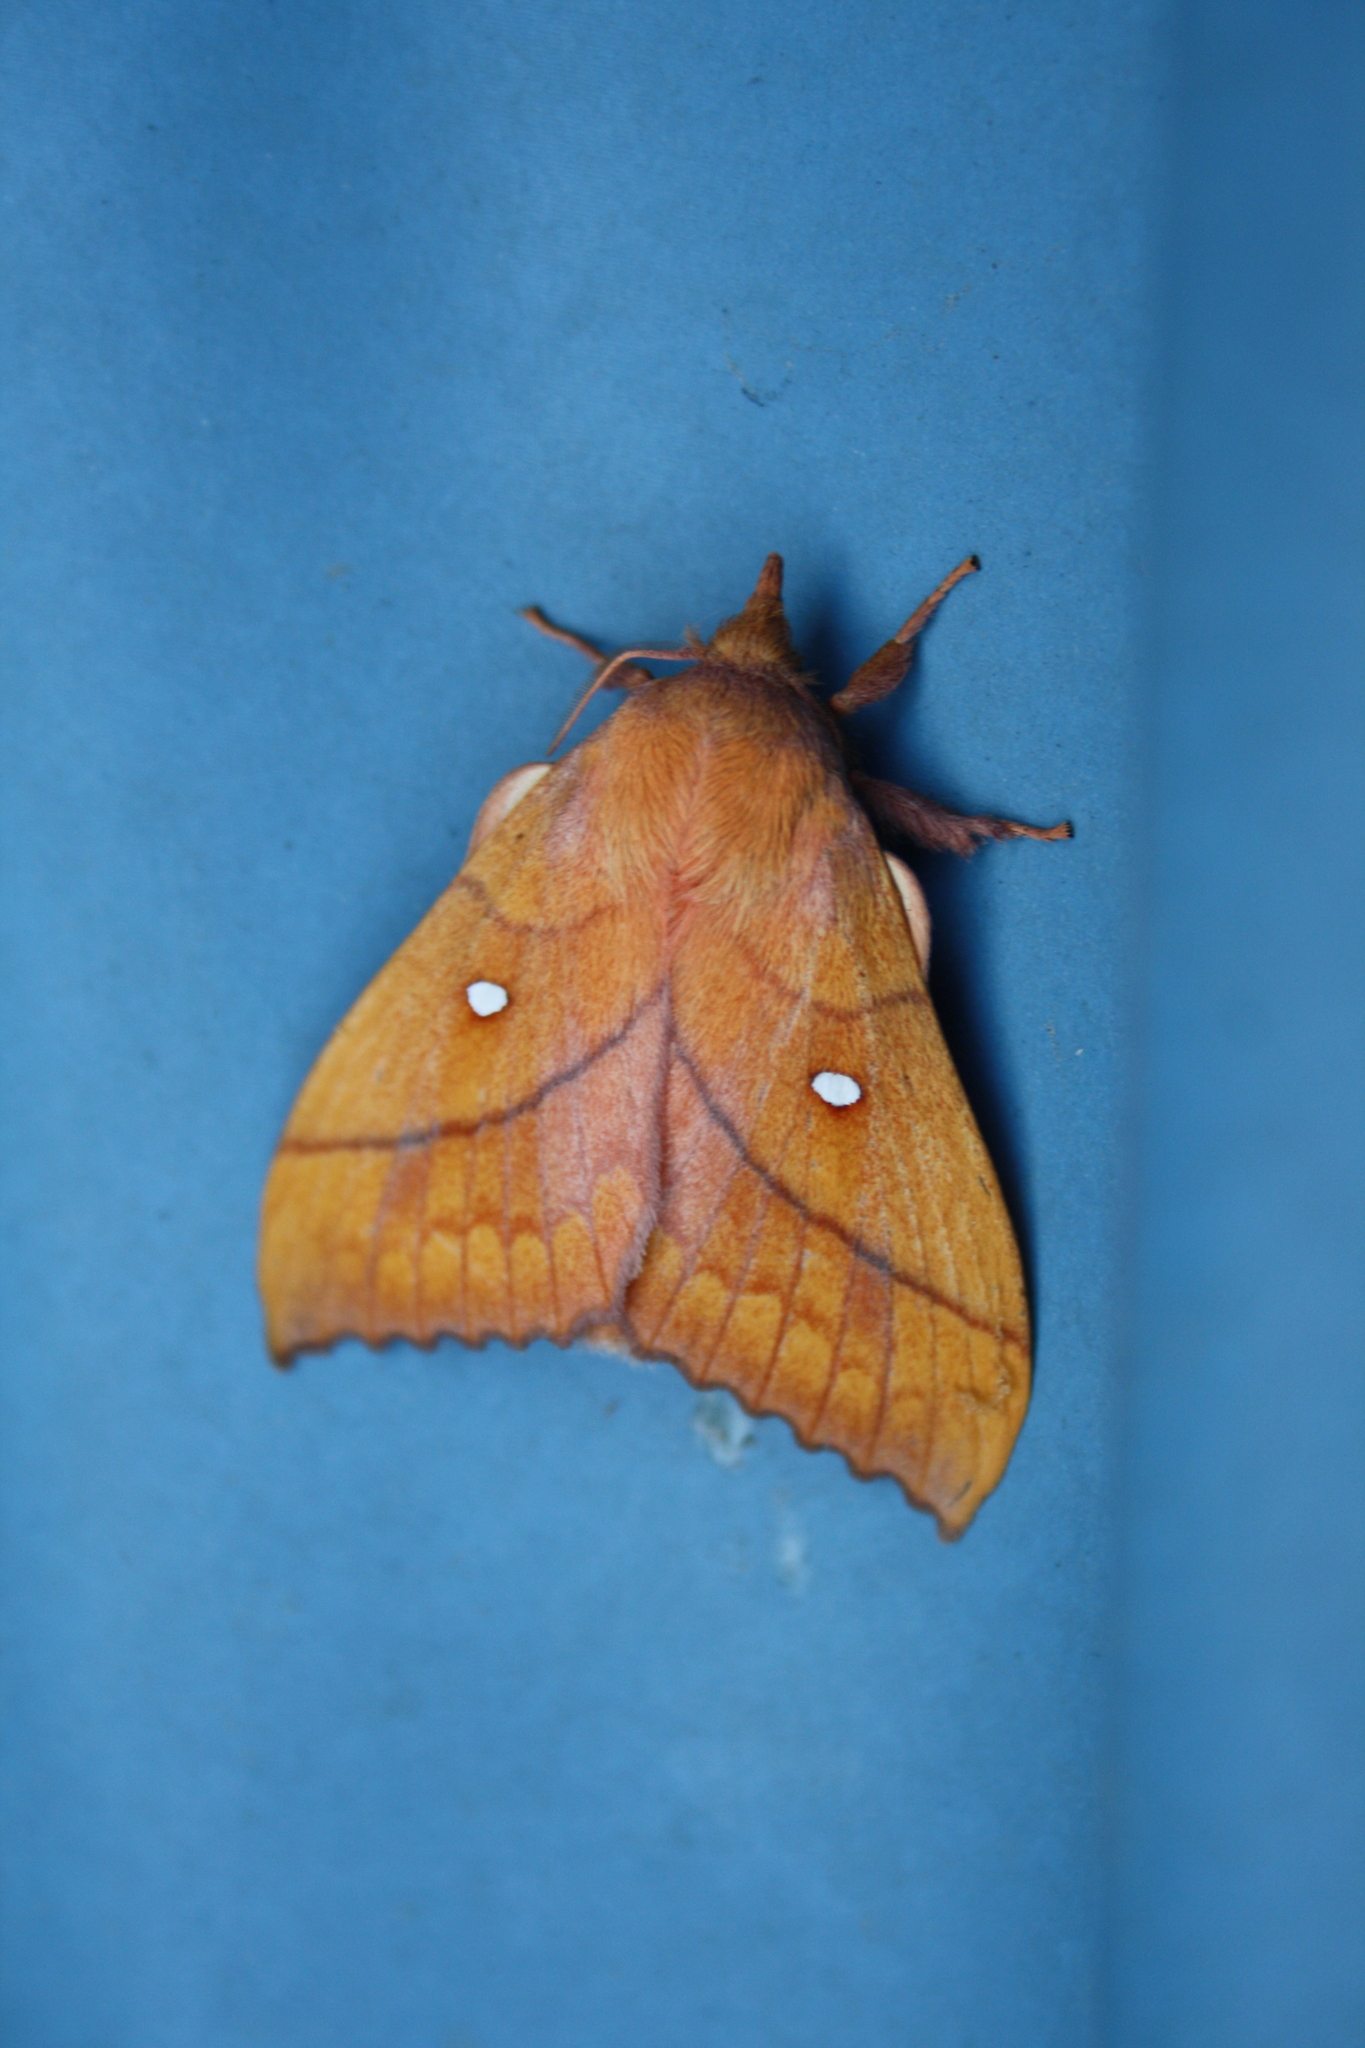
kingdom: Animalia
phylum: Arthropoda
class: Insecta
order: Lepidoptera
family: Lasiocampidae
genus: Odonestis
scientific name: Odonestis pruni
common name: Plum lappet
